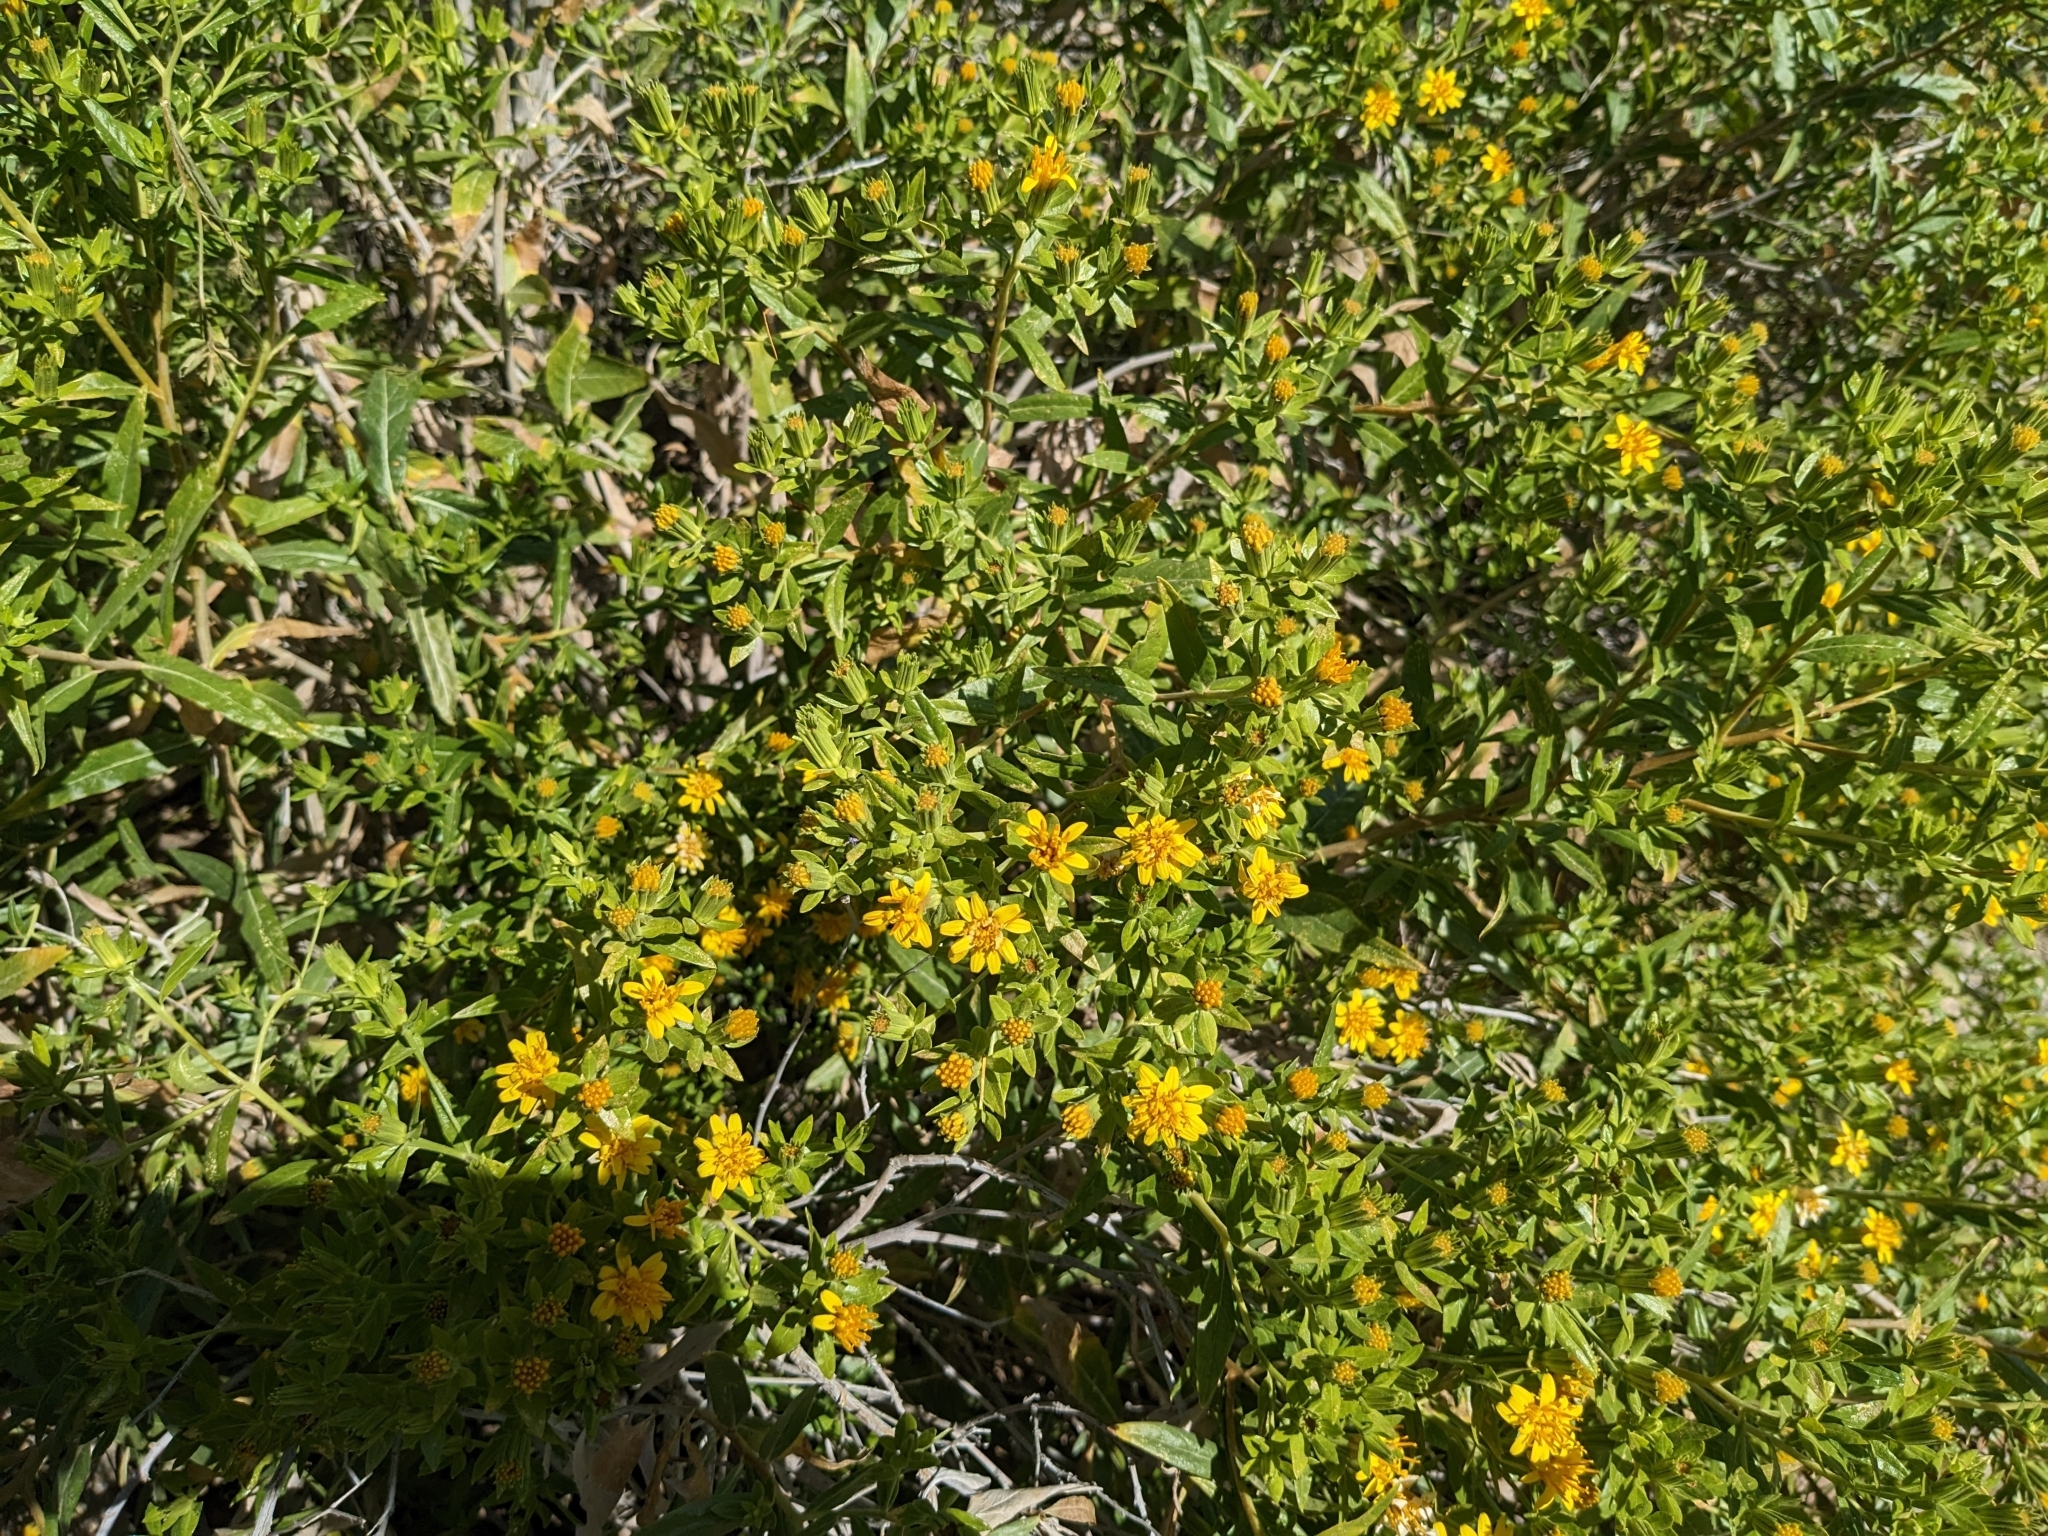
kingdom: Plantae
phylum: Tracheophyta
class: Magnoliopsida
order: Asterales
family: Asteraceae
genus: Trixis
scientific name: Trixis californica
